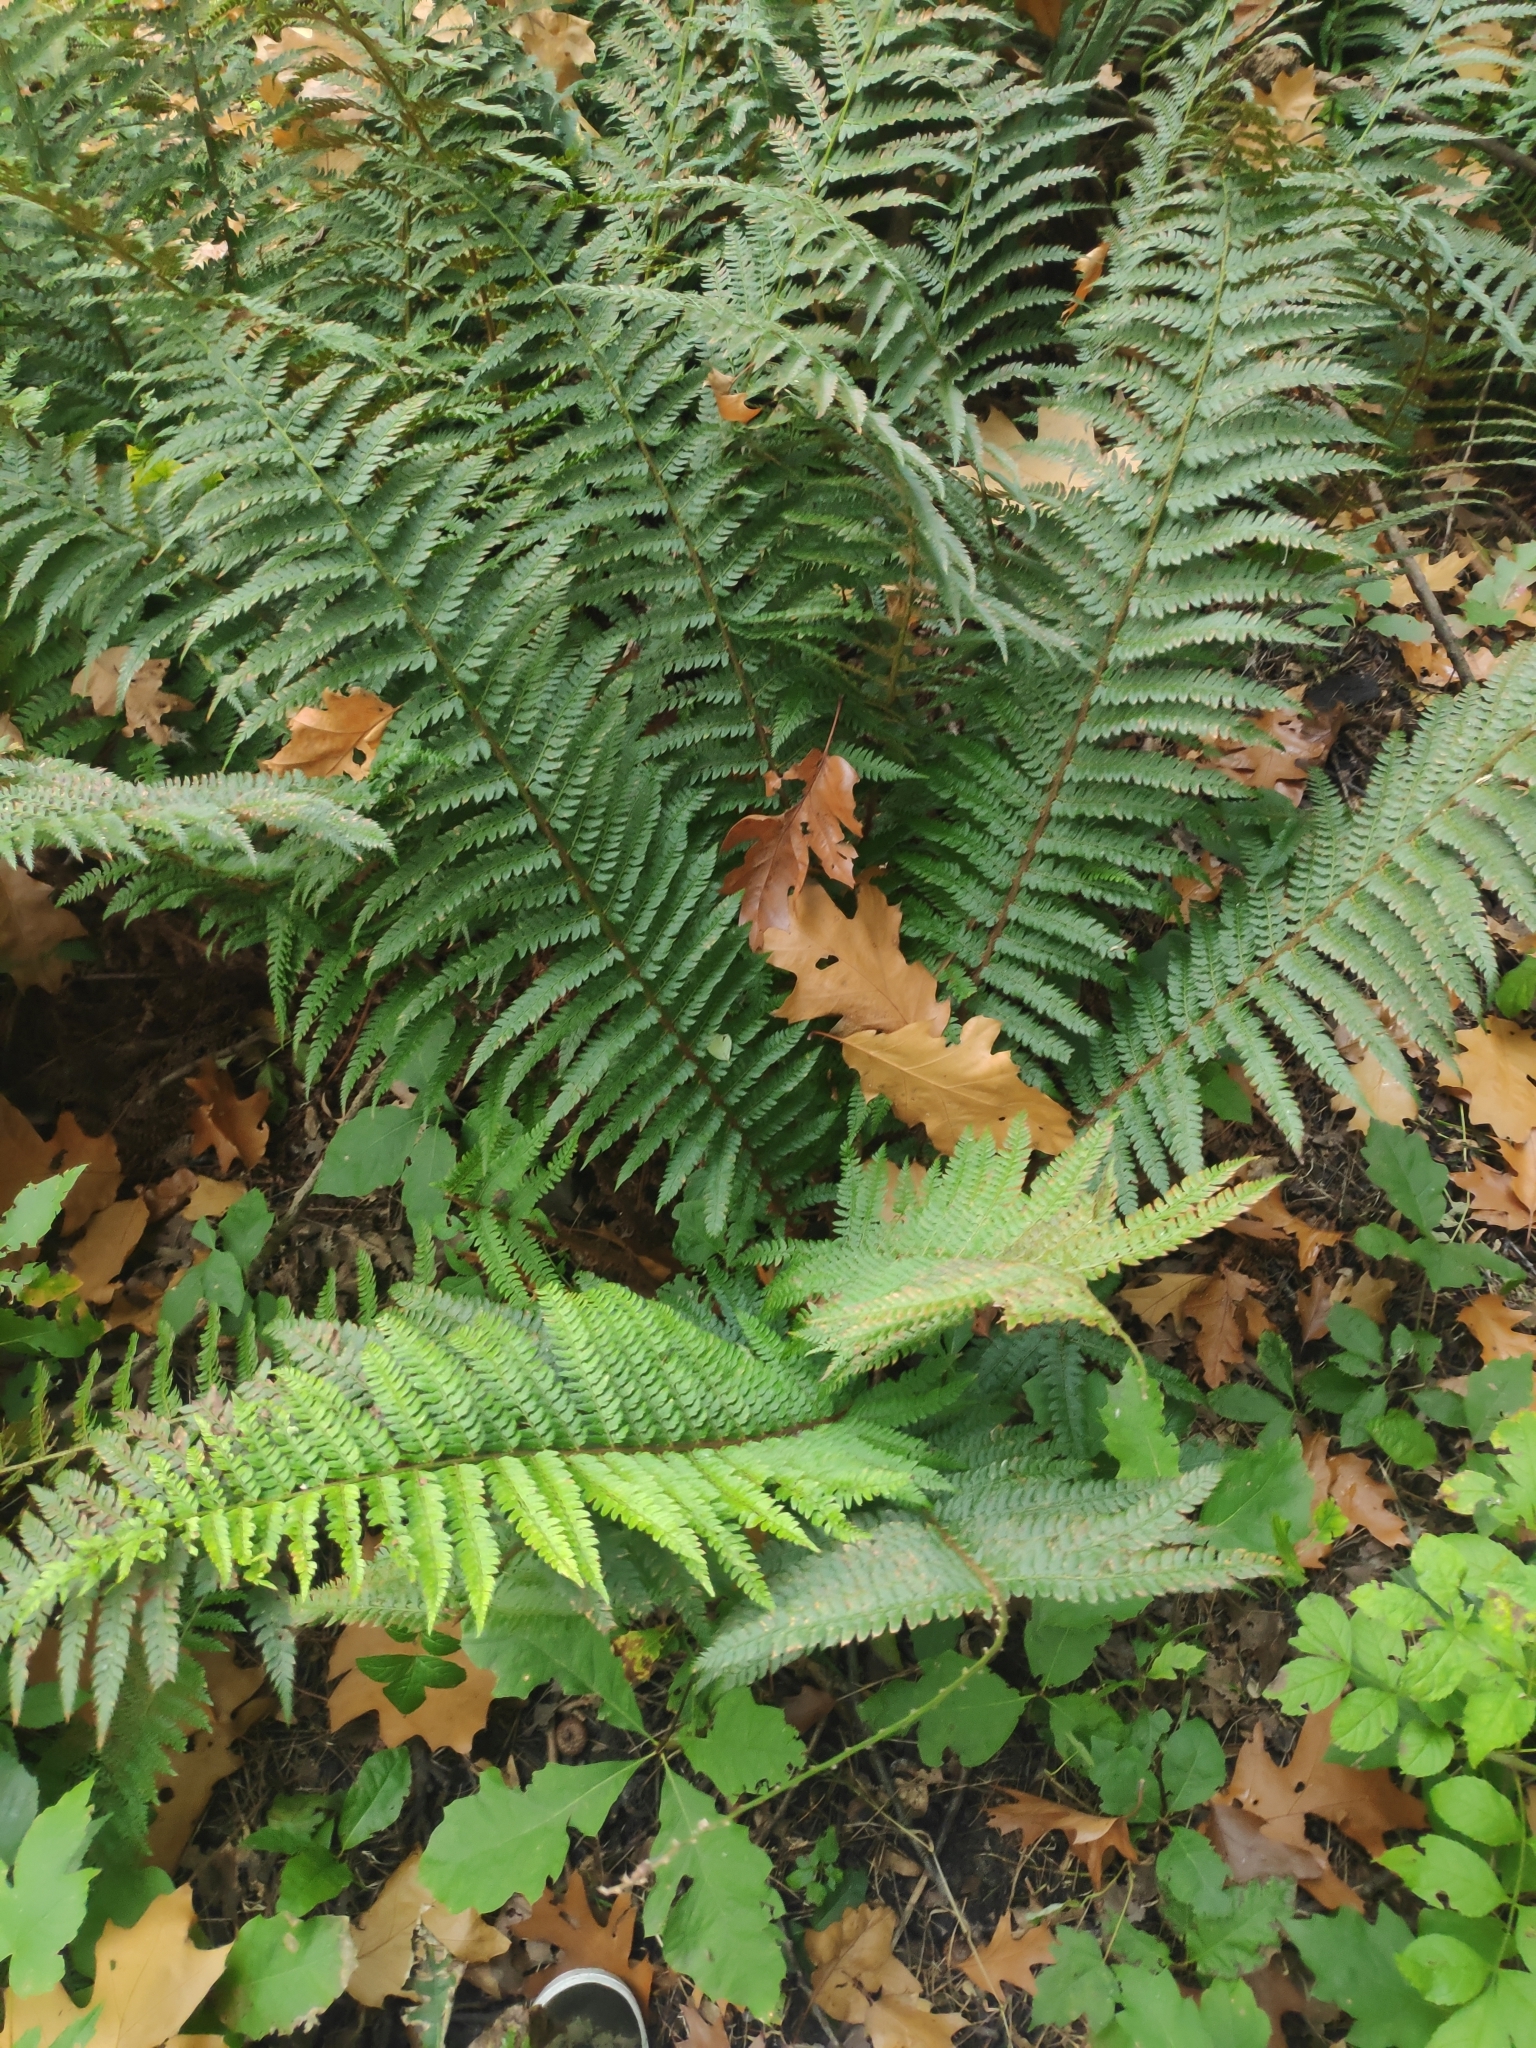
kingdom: Plantae
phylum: Tracheophyta
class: Polypodiopsida
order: Polypodiales
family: Dryopteridaceae
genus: Polystichum
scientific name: Polystichum setiferum
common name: Soft shield-fern
